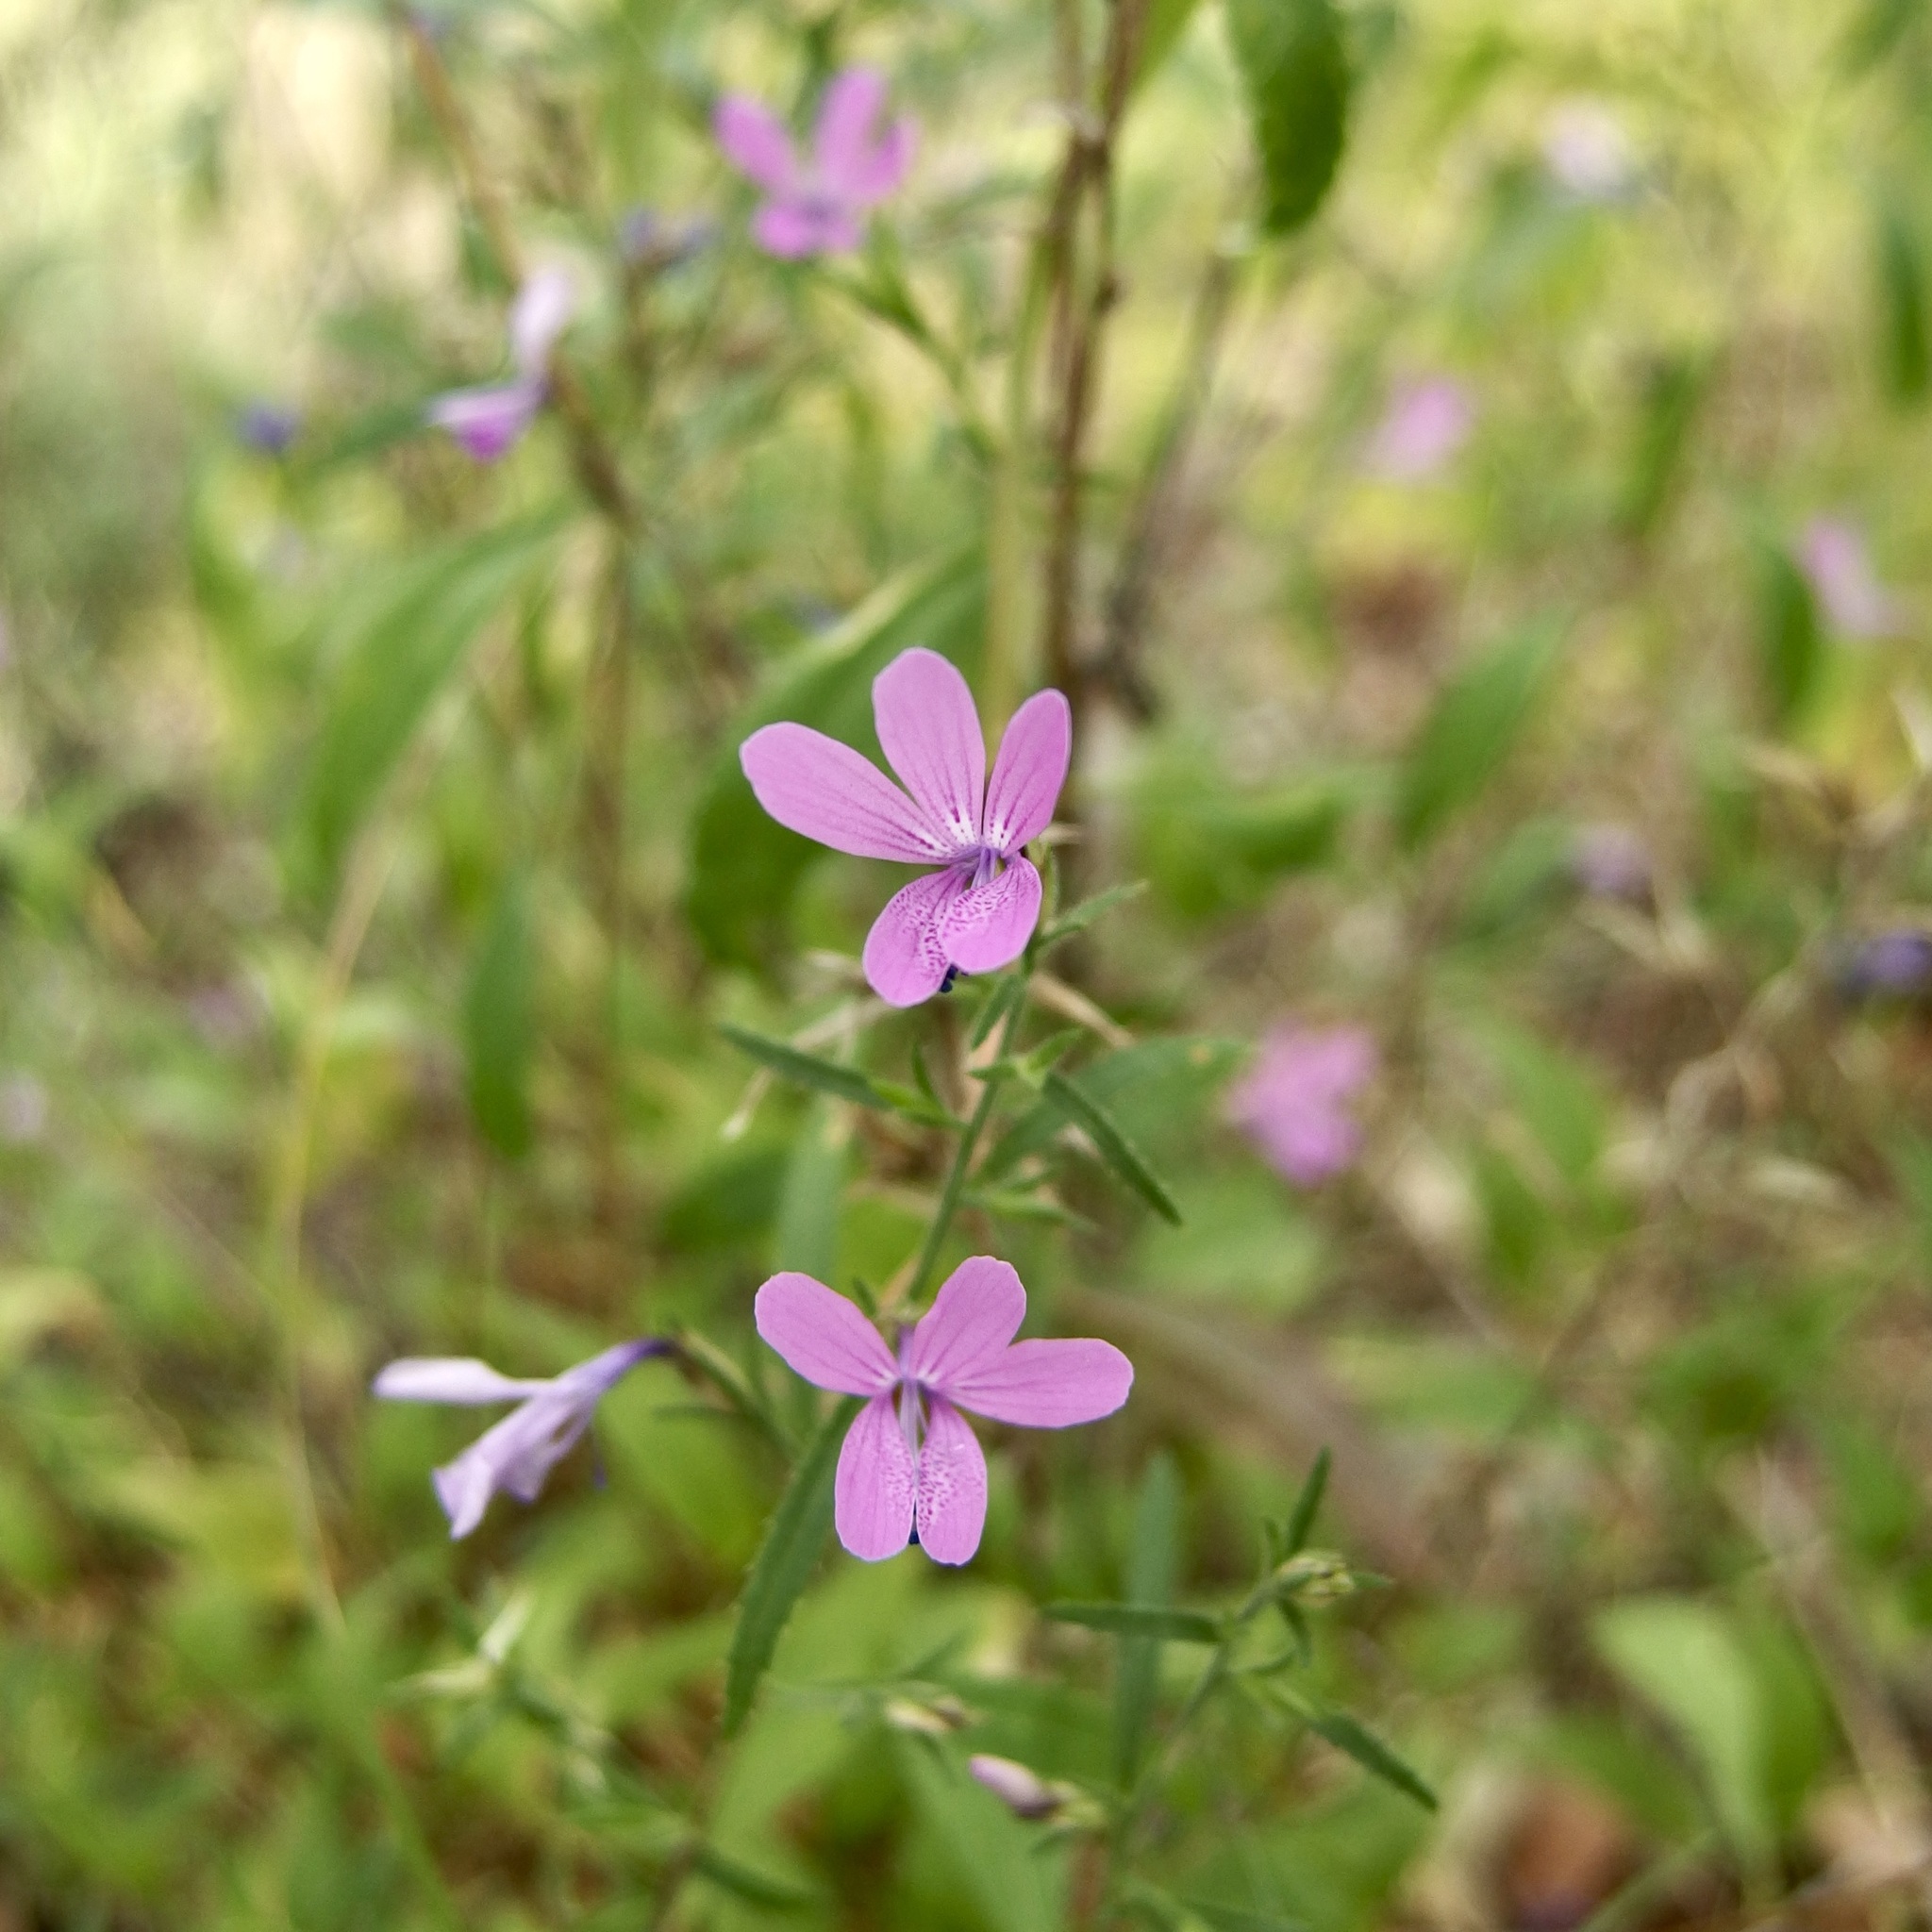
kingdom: Plantae
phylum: Tracheophyta
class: Magnoliopsida
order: Ericales
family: Polemoniaceae
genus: Loeselia
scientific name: Loeselia glandulosa
